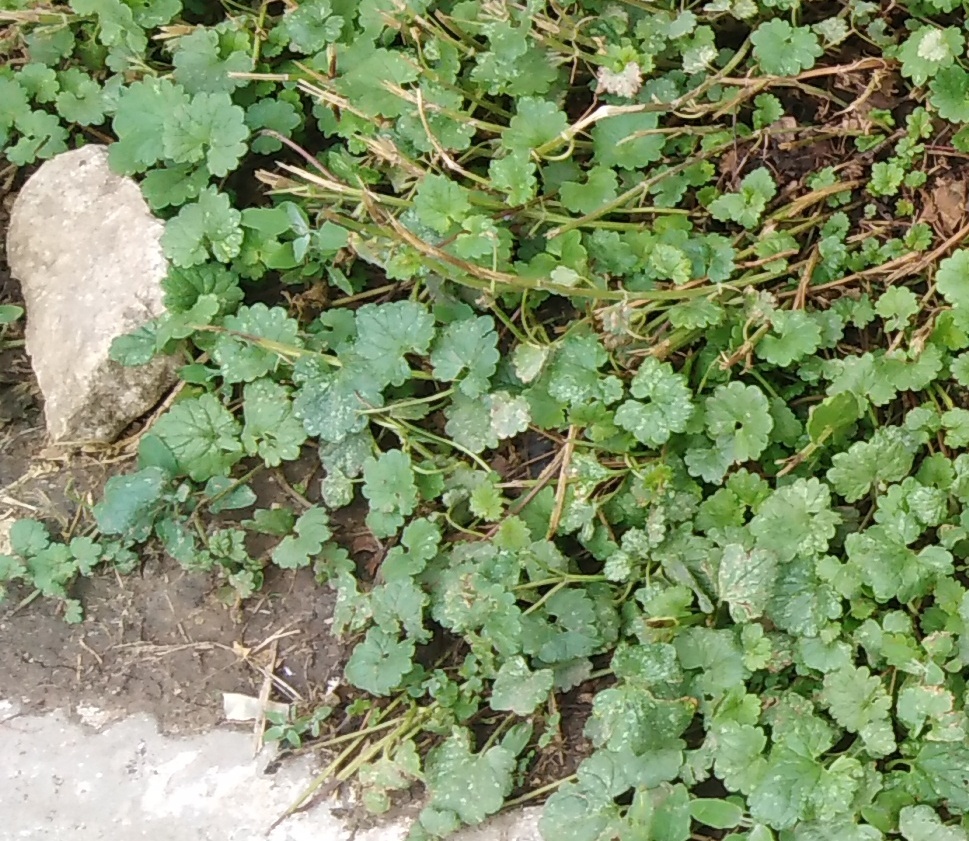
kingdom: Plantae
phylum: Tracheophyta
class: Magnoliopsida
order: Lamiales
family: Lamiaceae
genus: Glechoma
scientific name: Glechoma hederacea
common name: Ground ivy
